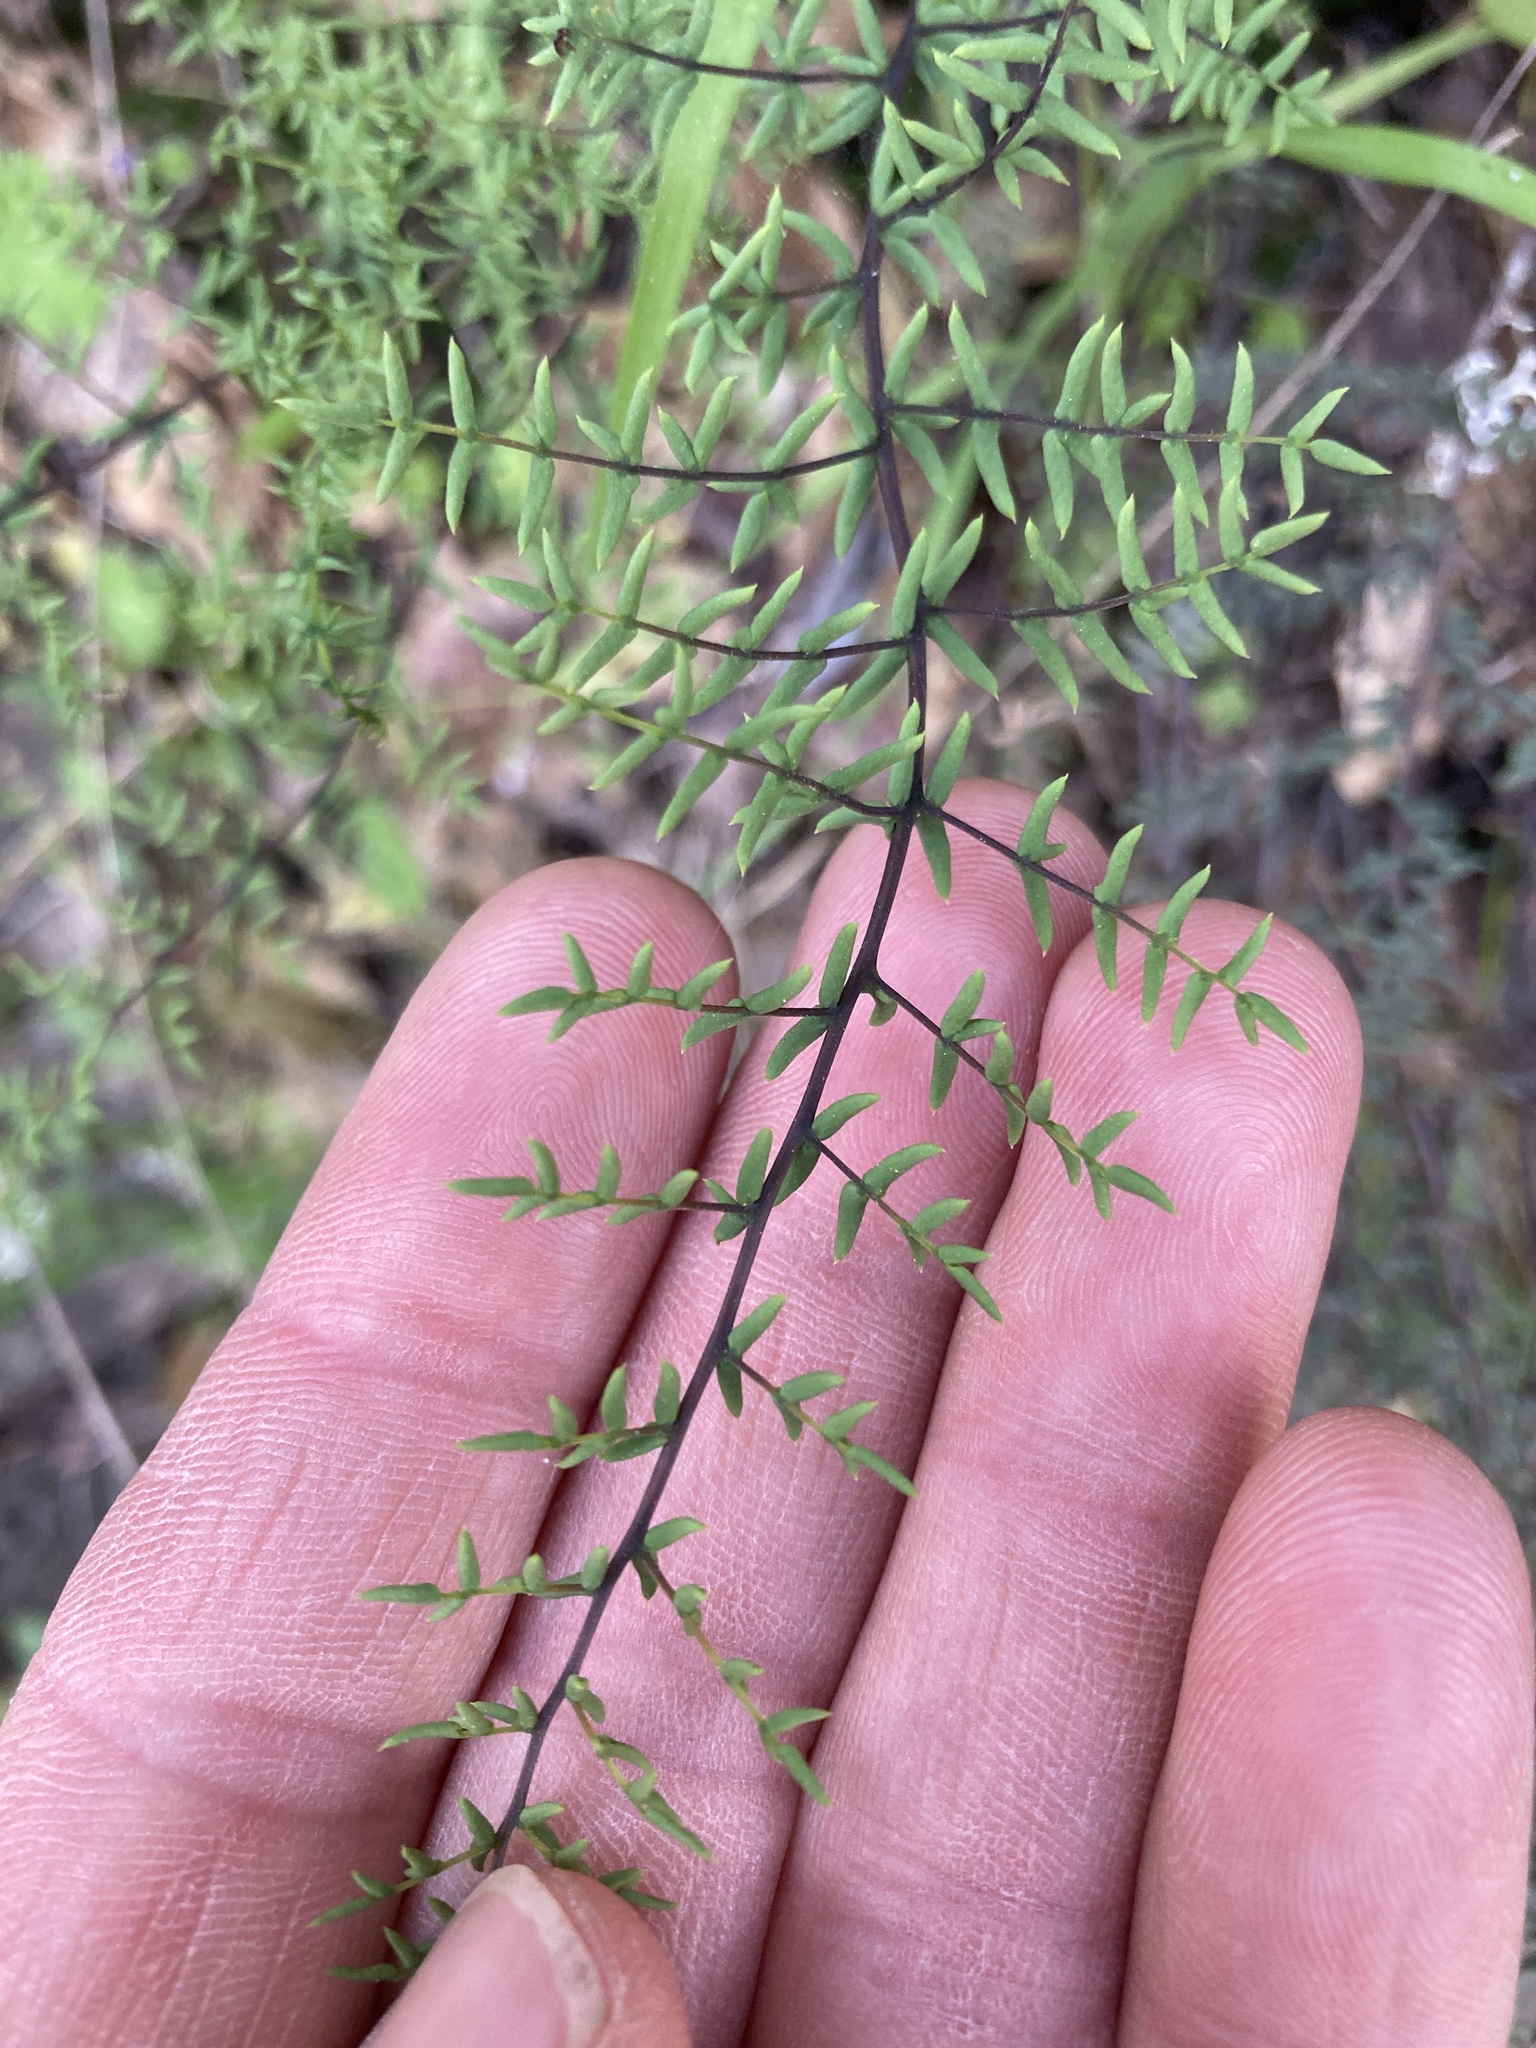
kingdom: Plantae
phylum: Tracheophyta
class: Polypodiopsida
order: Polypodiales
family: Pteridaceae
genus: Pellaea
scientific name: Pellaea mucronata
